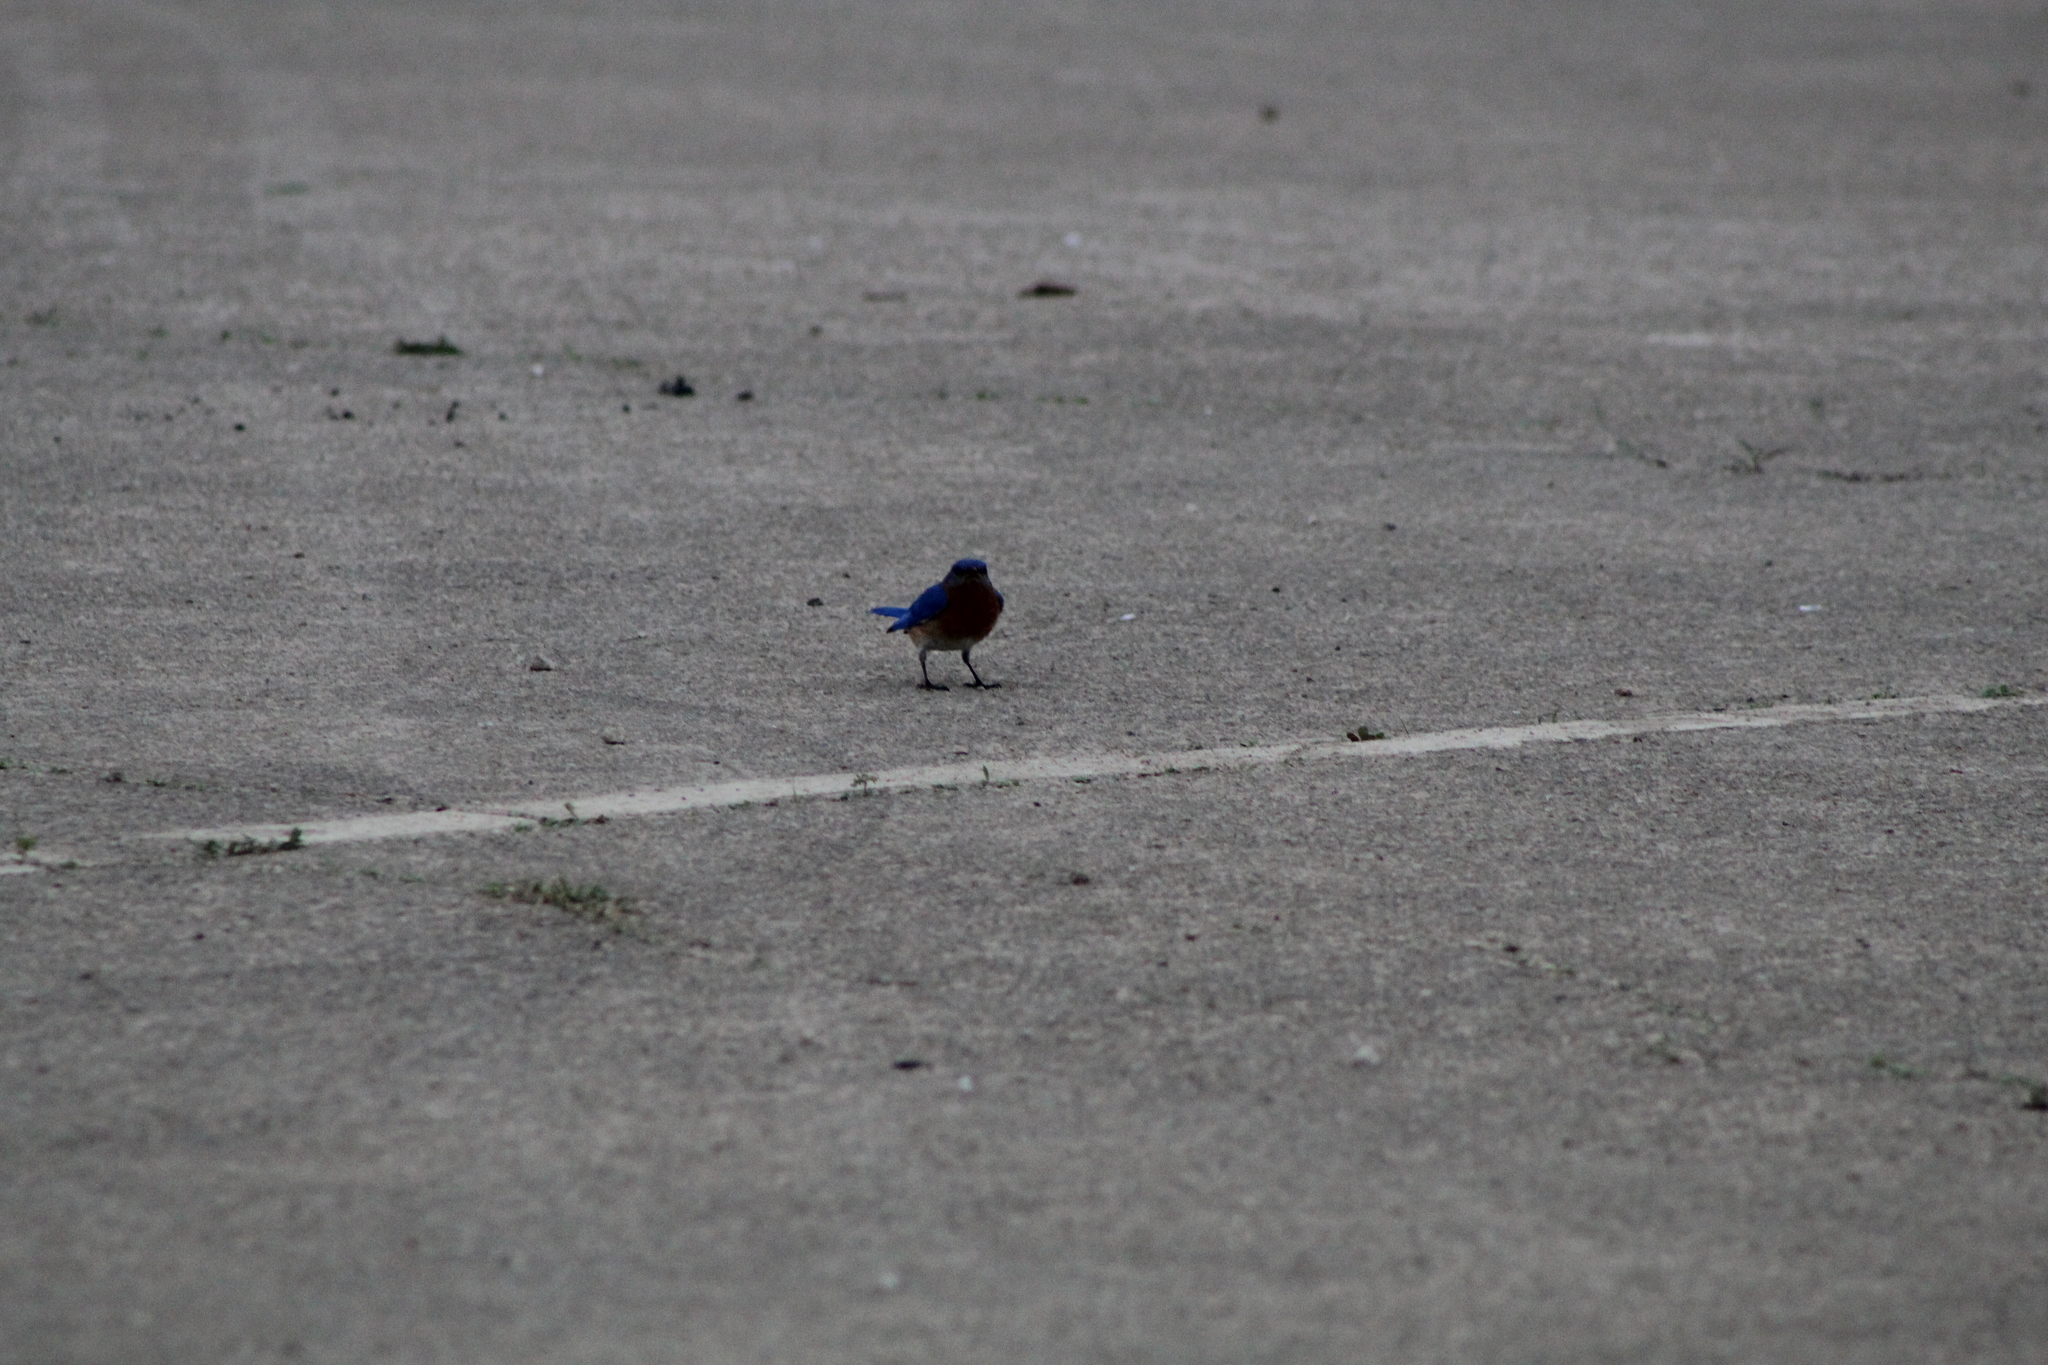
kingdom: Animalia
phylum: Chordata
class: Aves
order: Passeriformes
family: Turdidae
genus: Sialia
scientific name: Sialia sialis
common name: Eastern bluebird
